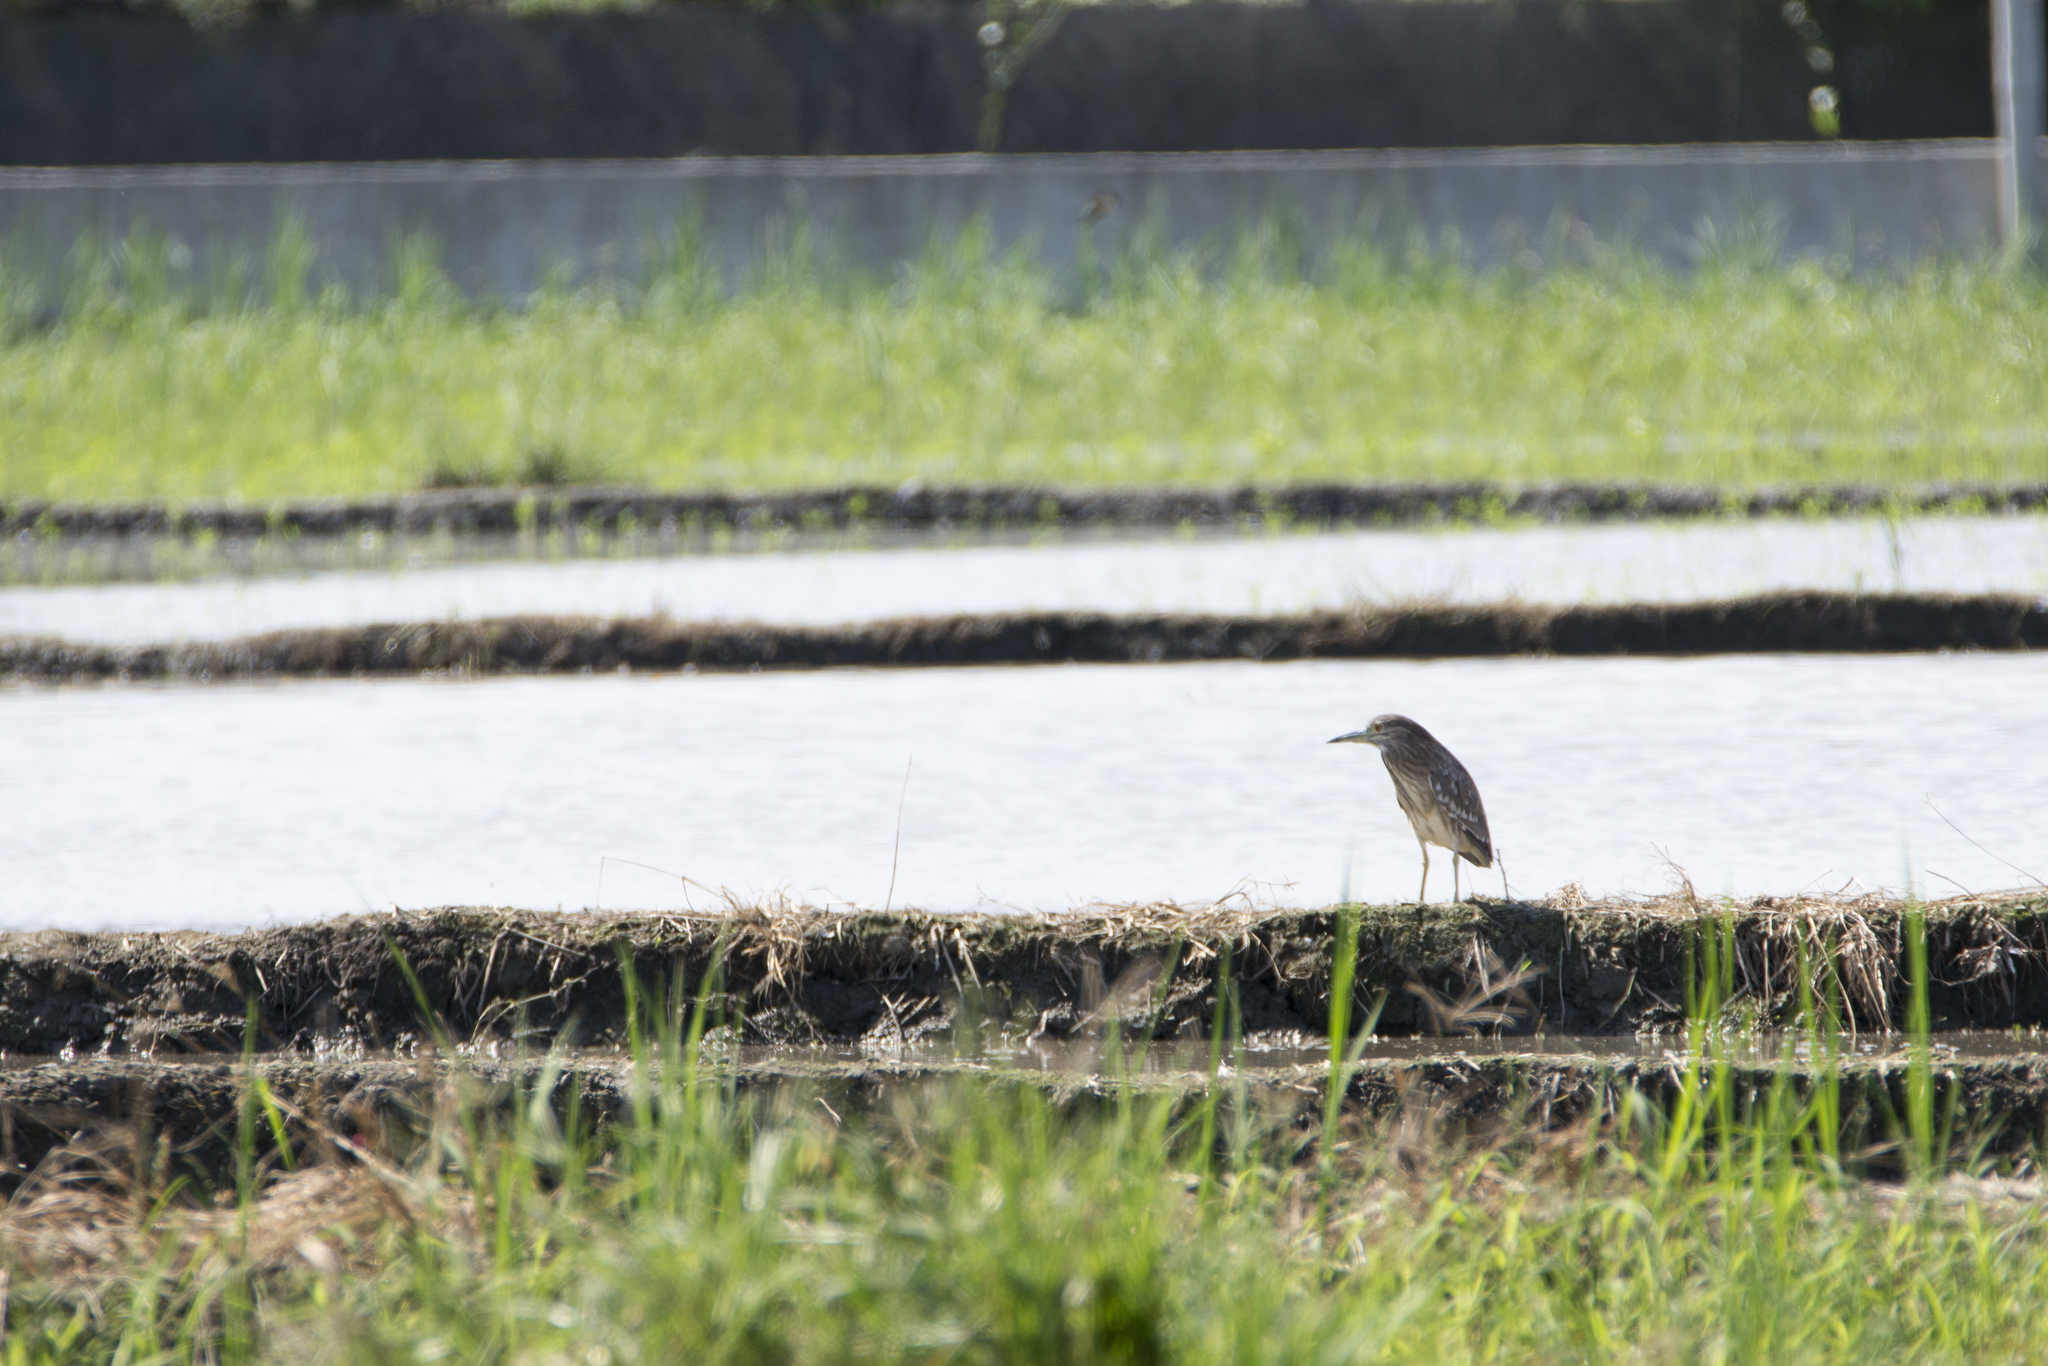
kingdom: Animalia
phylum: Chordata
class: Aves
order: Pelecaniformes
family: Ardeidae
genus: Nycticorax
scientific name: Nycticorax nycticorax
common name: Black-crowned night heron
